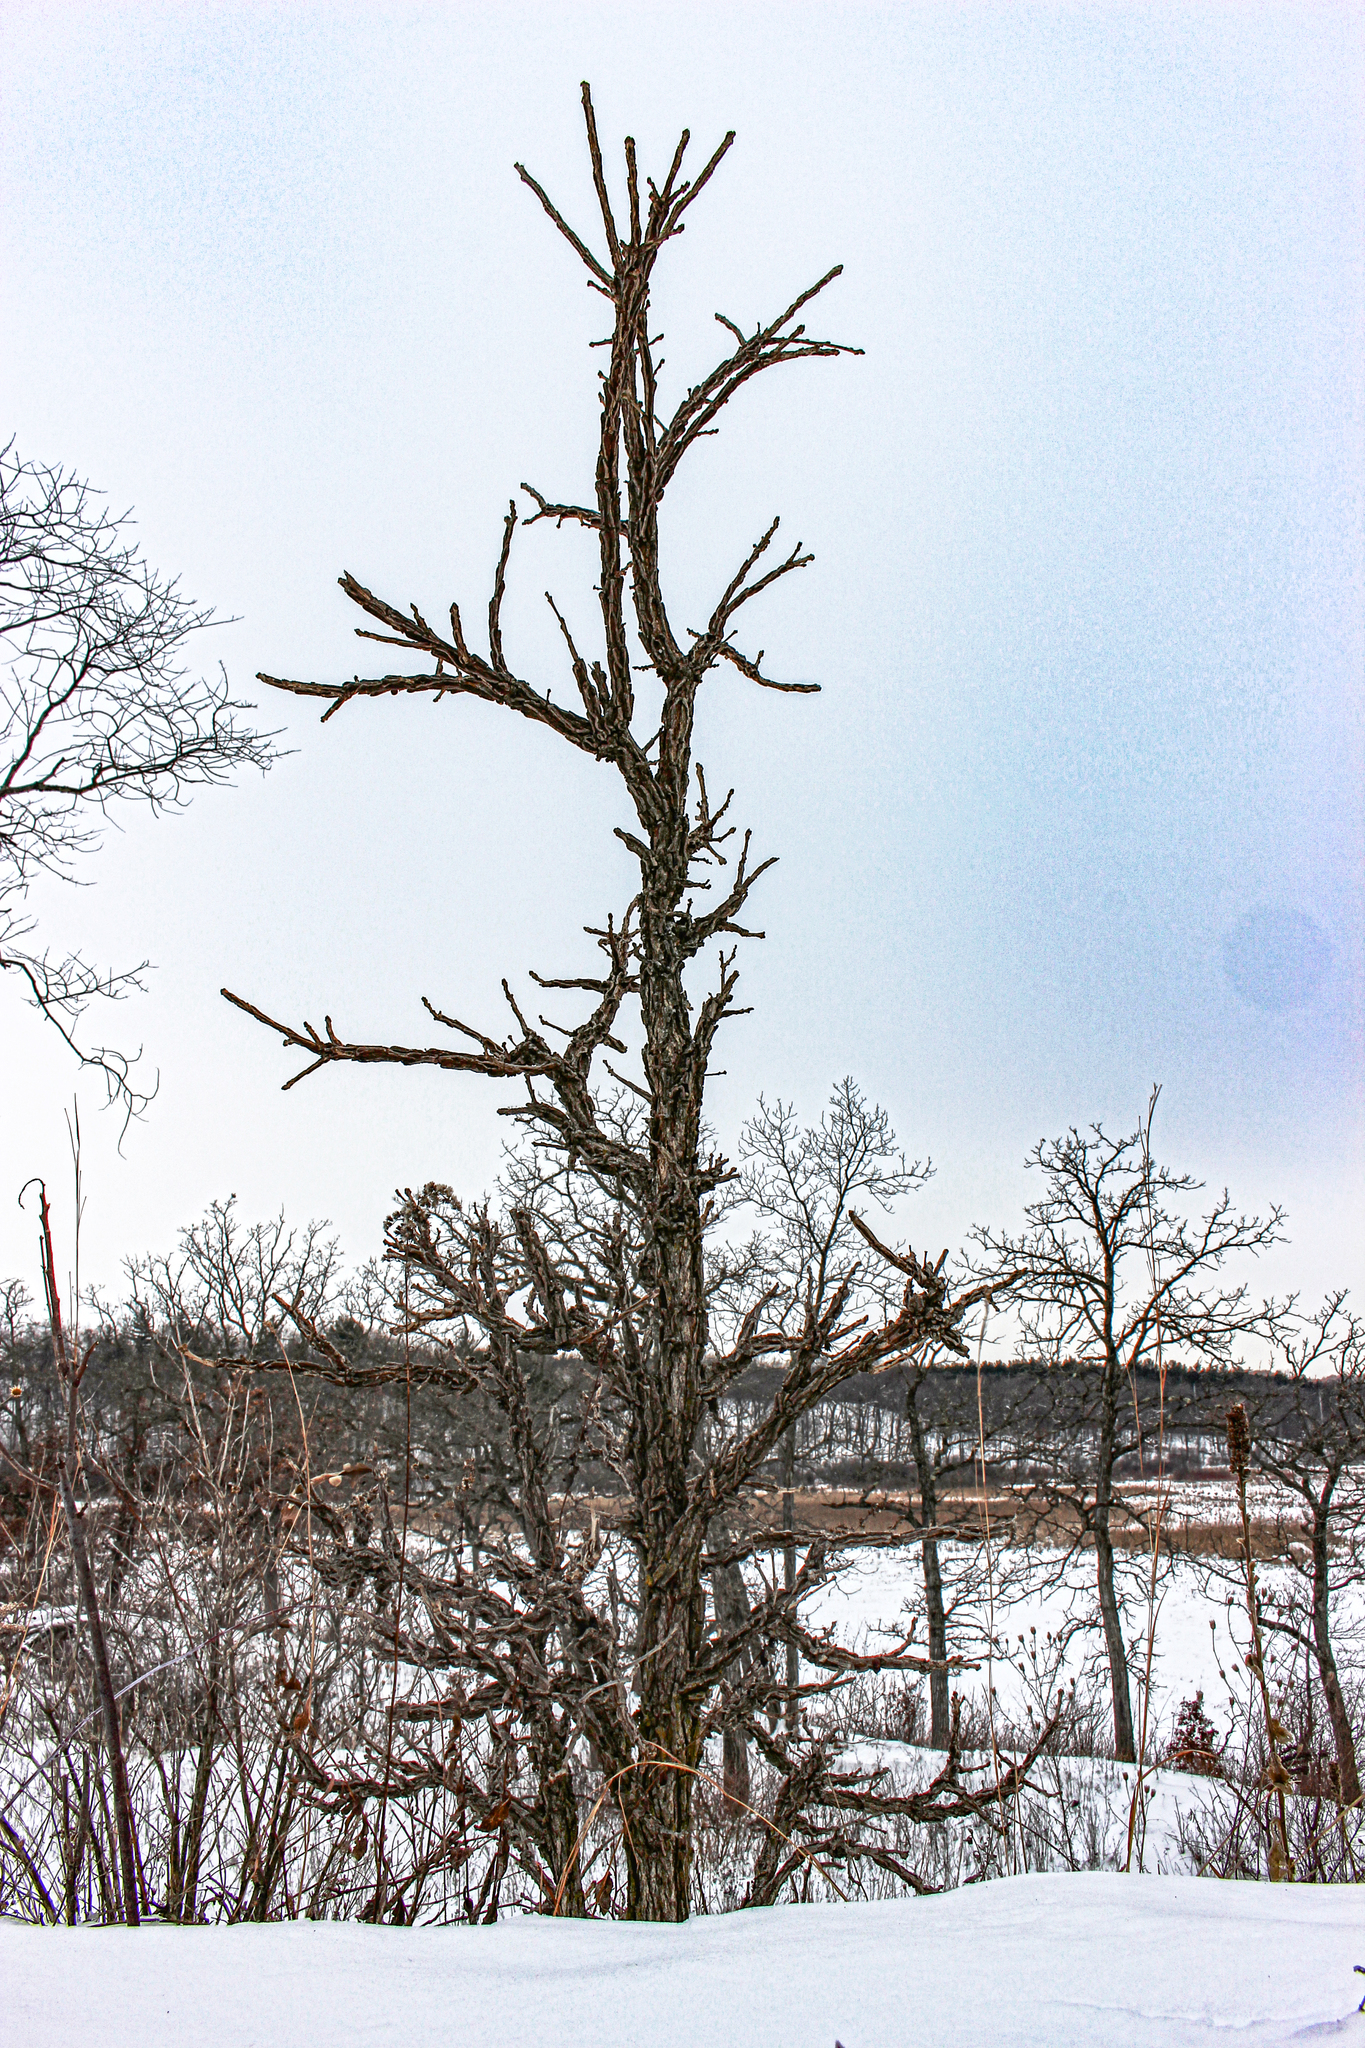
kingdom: Plantae
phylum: Tracheophyta
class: Magnoliopsida
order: Fagales
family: Fagaceae
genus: Quercus
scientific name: Quercus macrocarpa
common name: Bur oak
